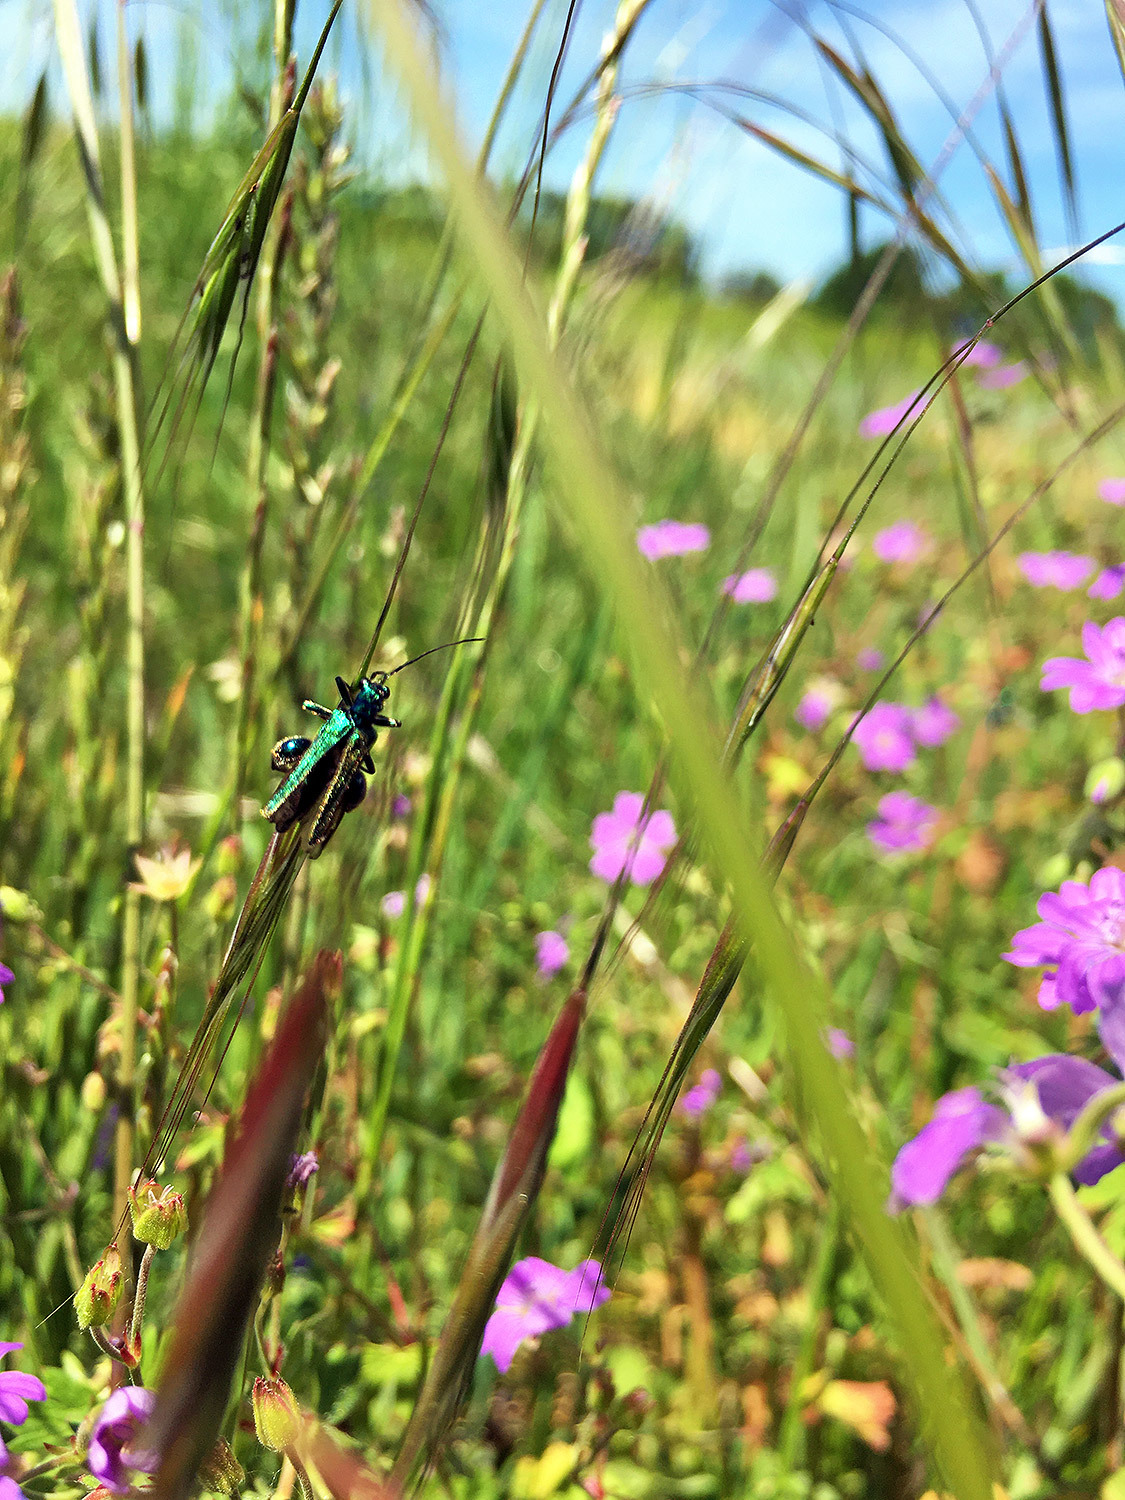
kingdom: Animalia
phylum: Arthropoda
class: Insecta
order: Coleoptera
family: Oedemeridae
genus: Oedemera
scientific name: Oedemera nobilis
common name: Swollen-thighed beetle
